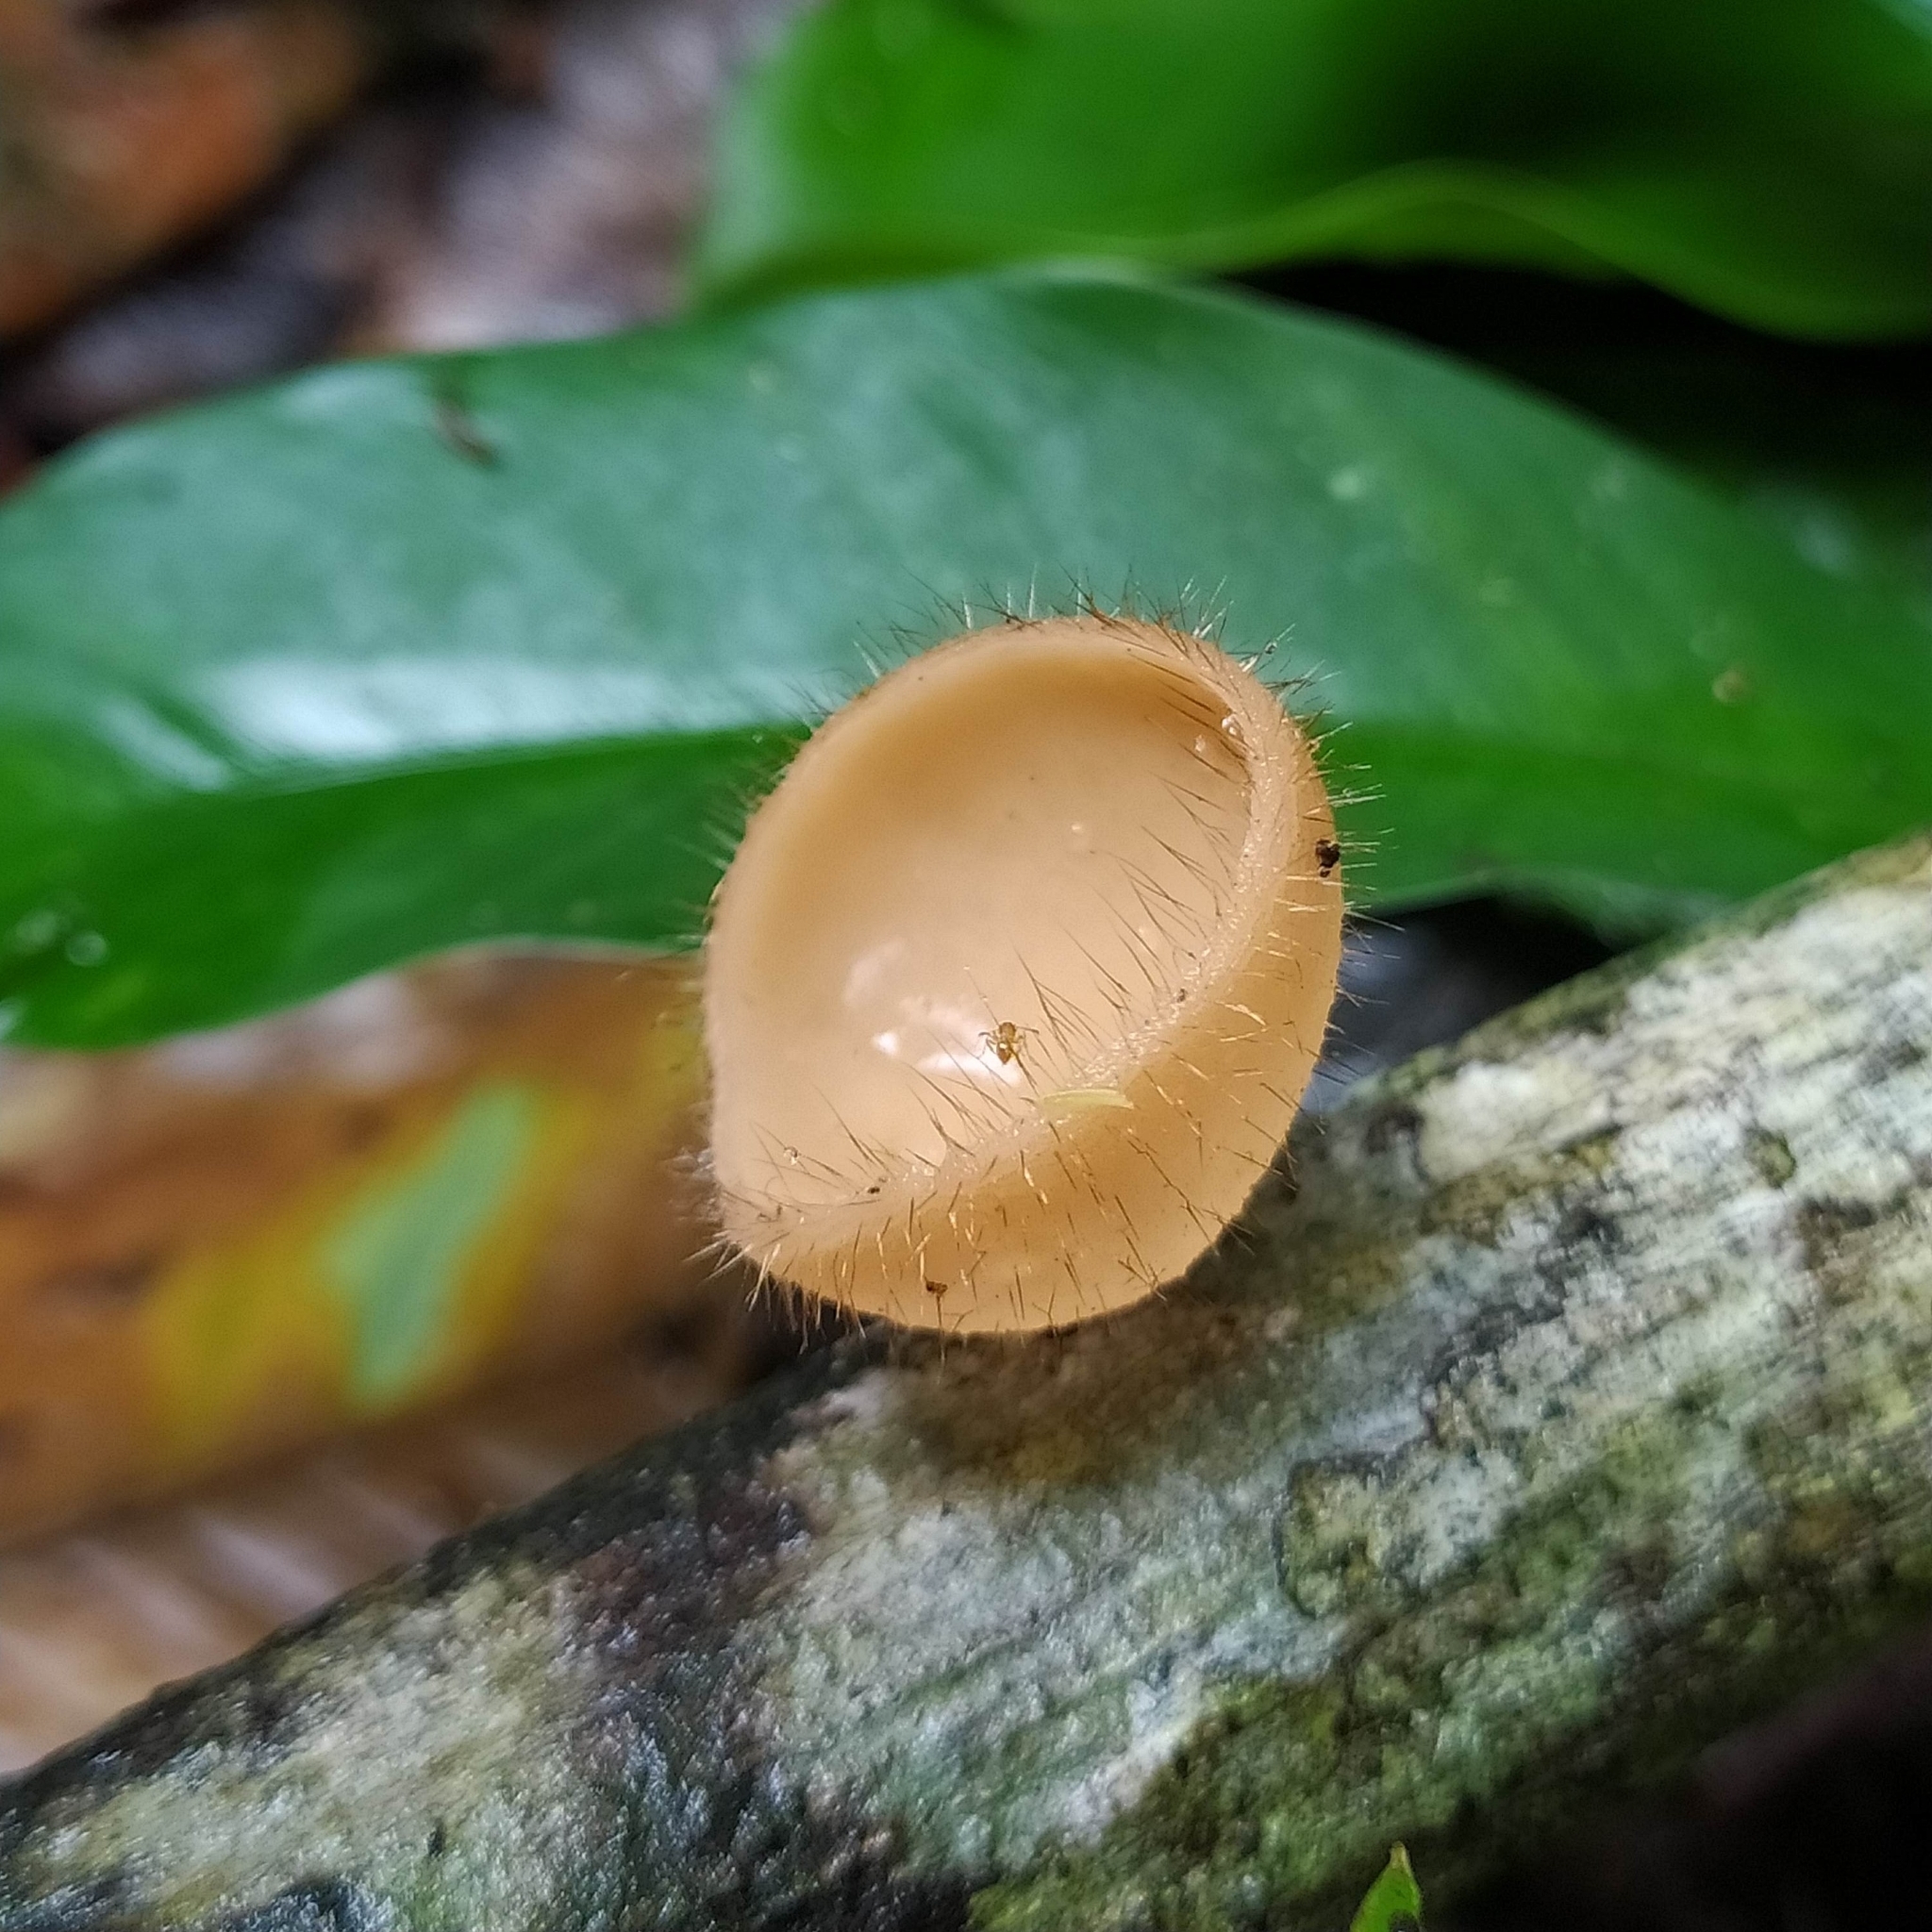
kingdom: Fungi
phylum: Ascomycota
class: Pezizomycetes
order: Pezizales
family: Sarcoscyphaceae
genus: Cookeina
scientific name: Cookeina tricholoma
